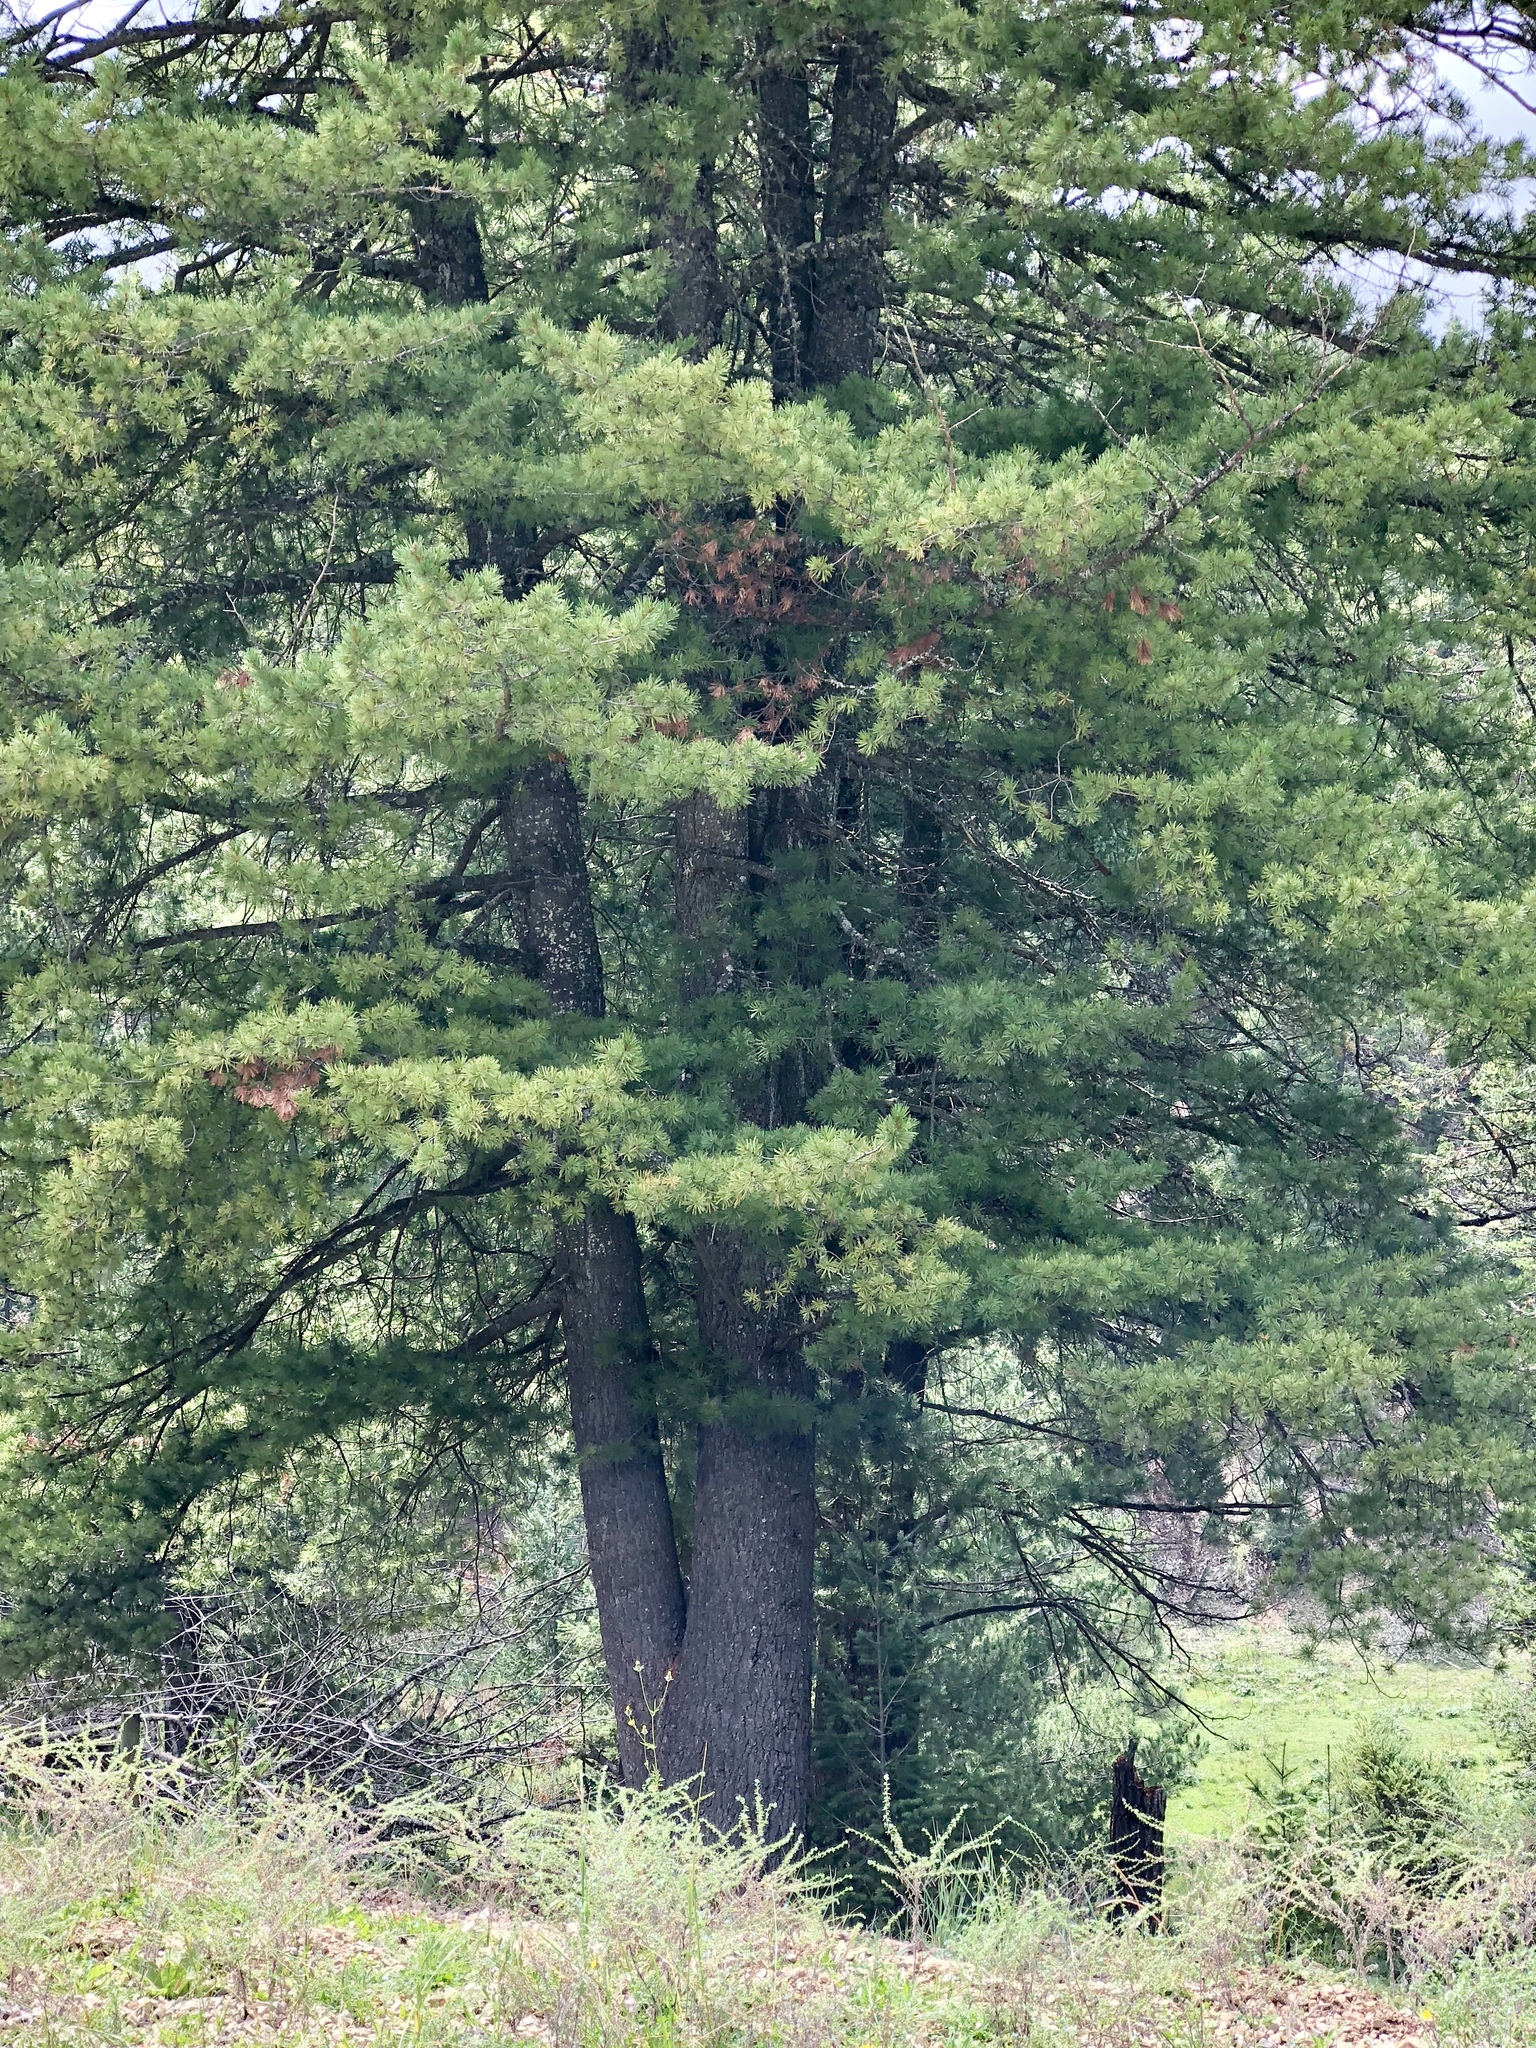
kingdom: Plantae
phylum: Tracheophyta
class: Pinopsida
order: Pinales
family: Pinaceae
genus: Pinus
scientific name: Pinus strobiformis
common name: Southwestern white pine
